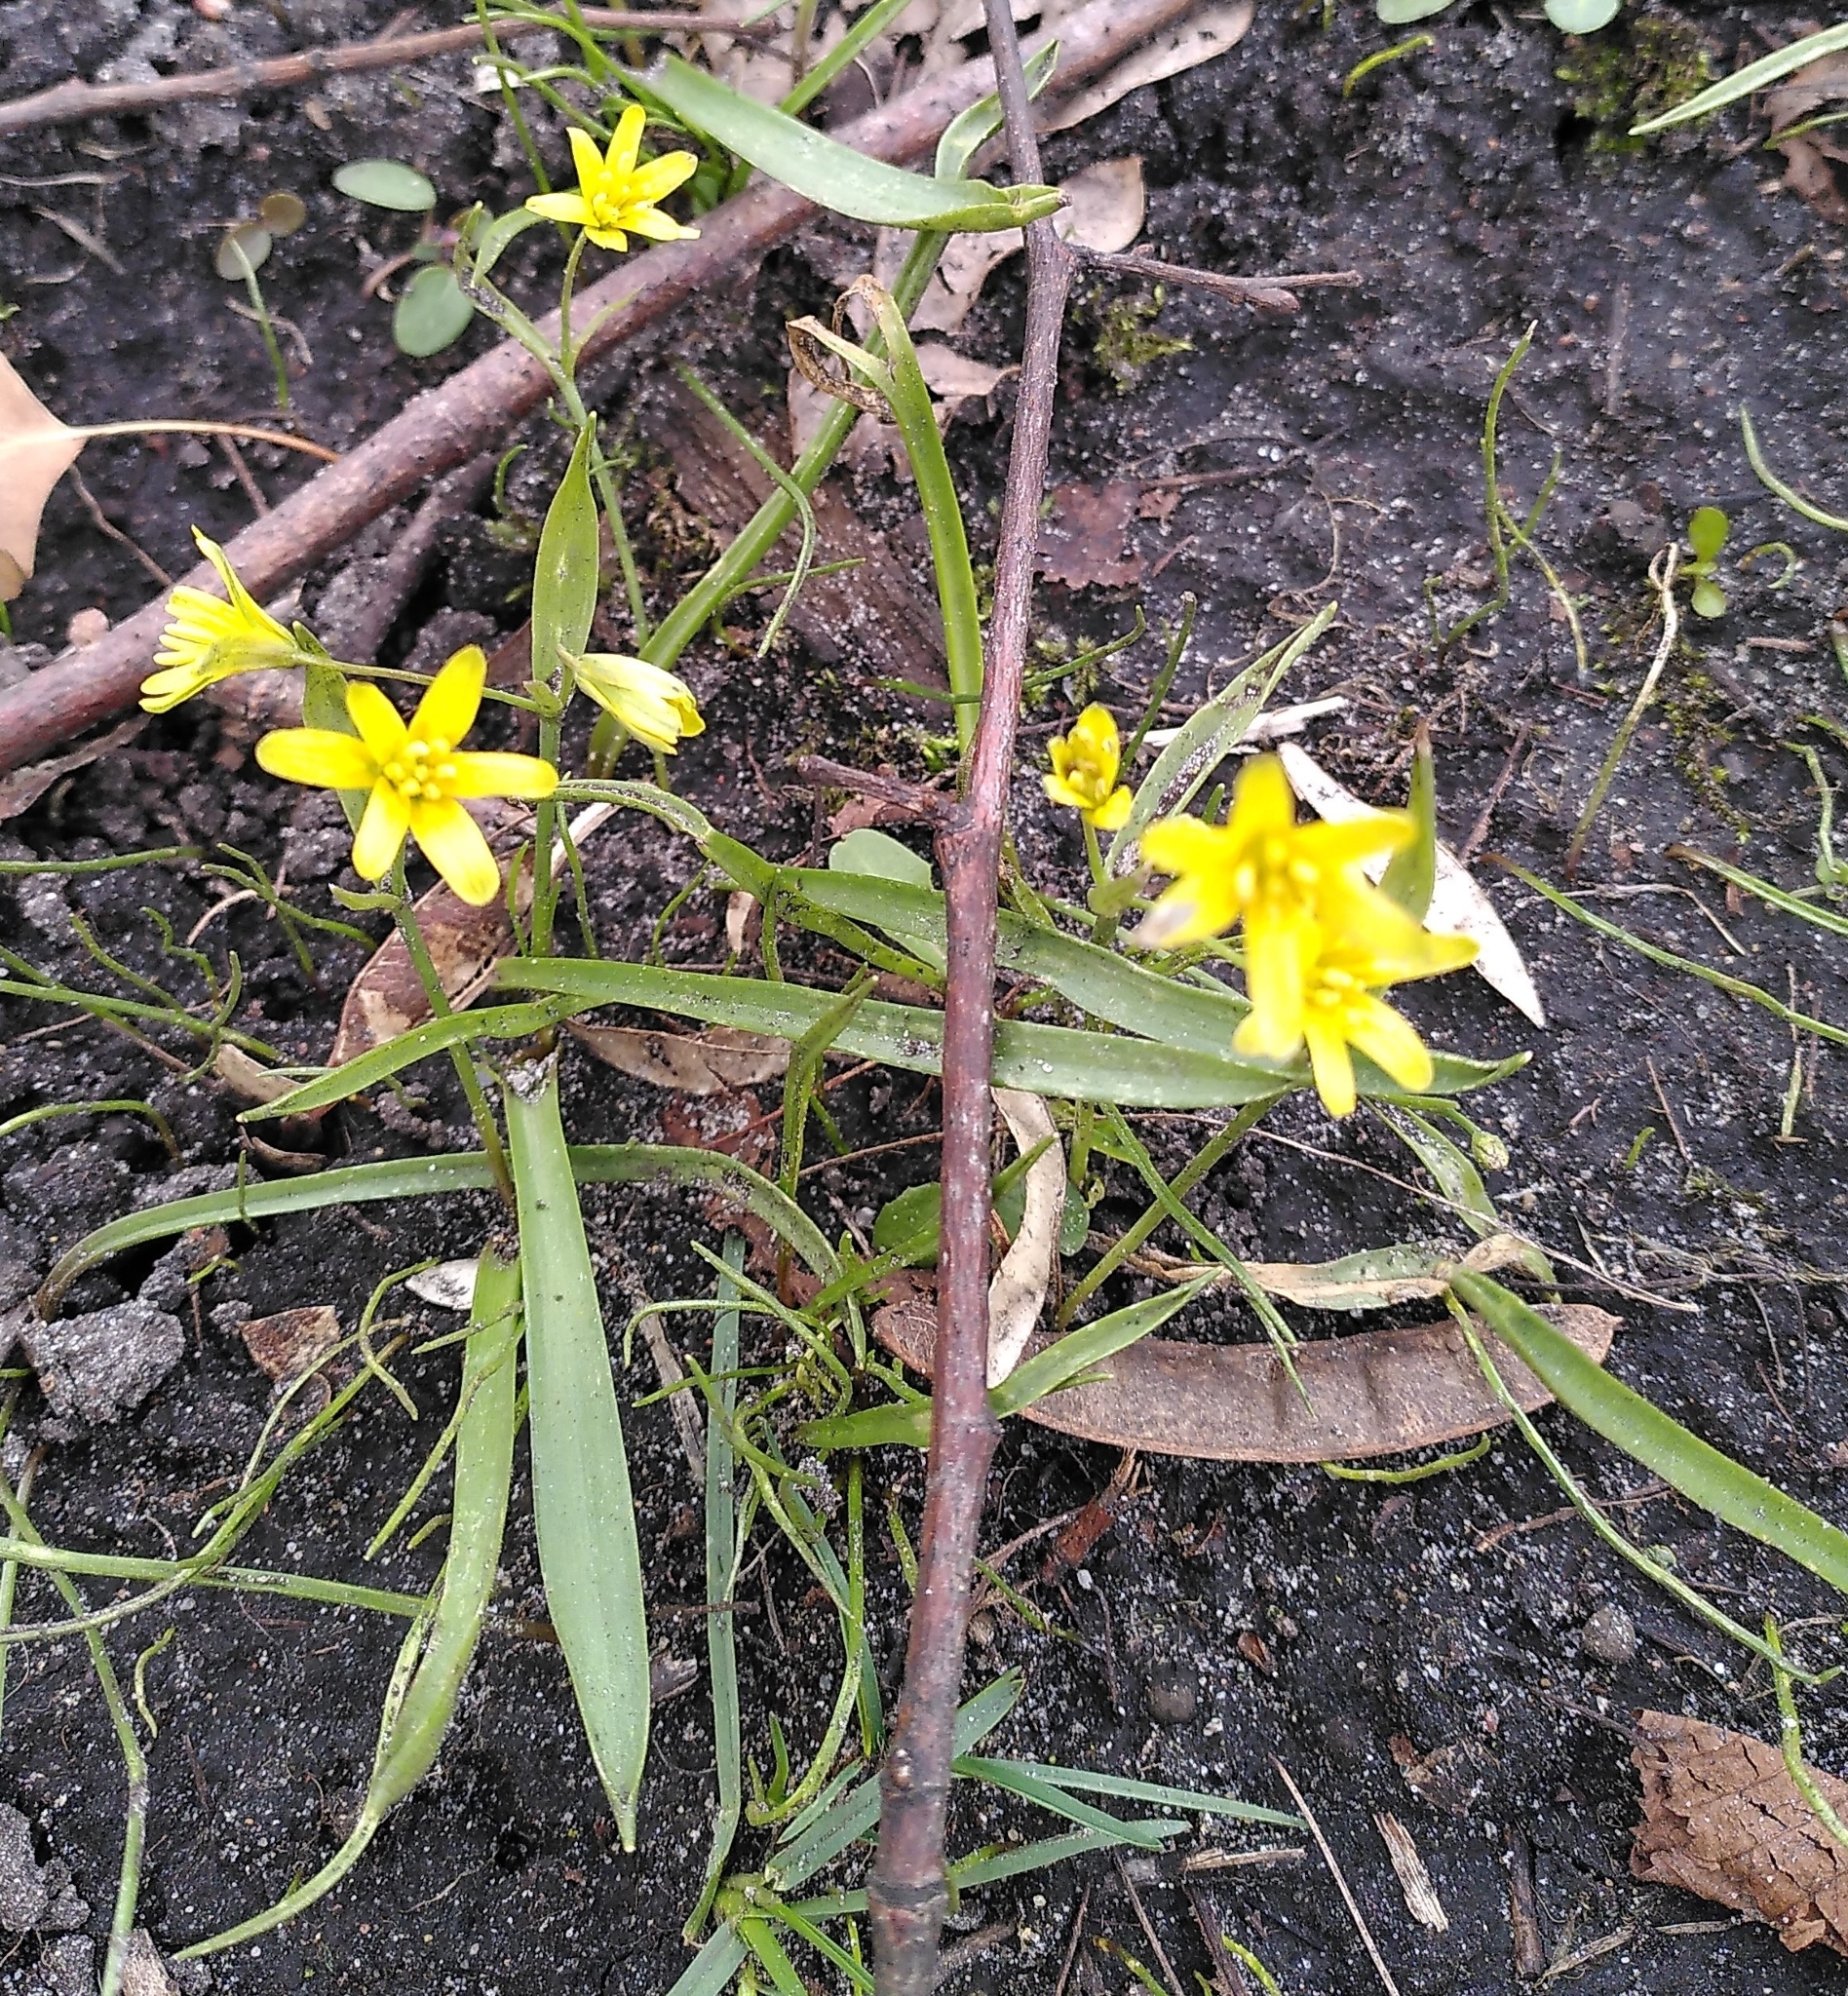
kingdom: Plantae
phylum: Tracheophyta
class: Liliopsida
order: Liliales
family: Liliaceae
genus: Gagea
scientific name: Gagea lutea
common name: Yellow star-of-bethlehem
